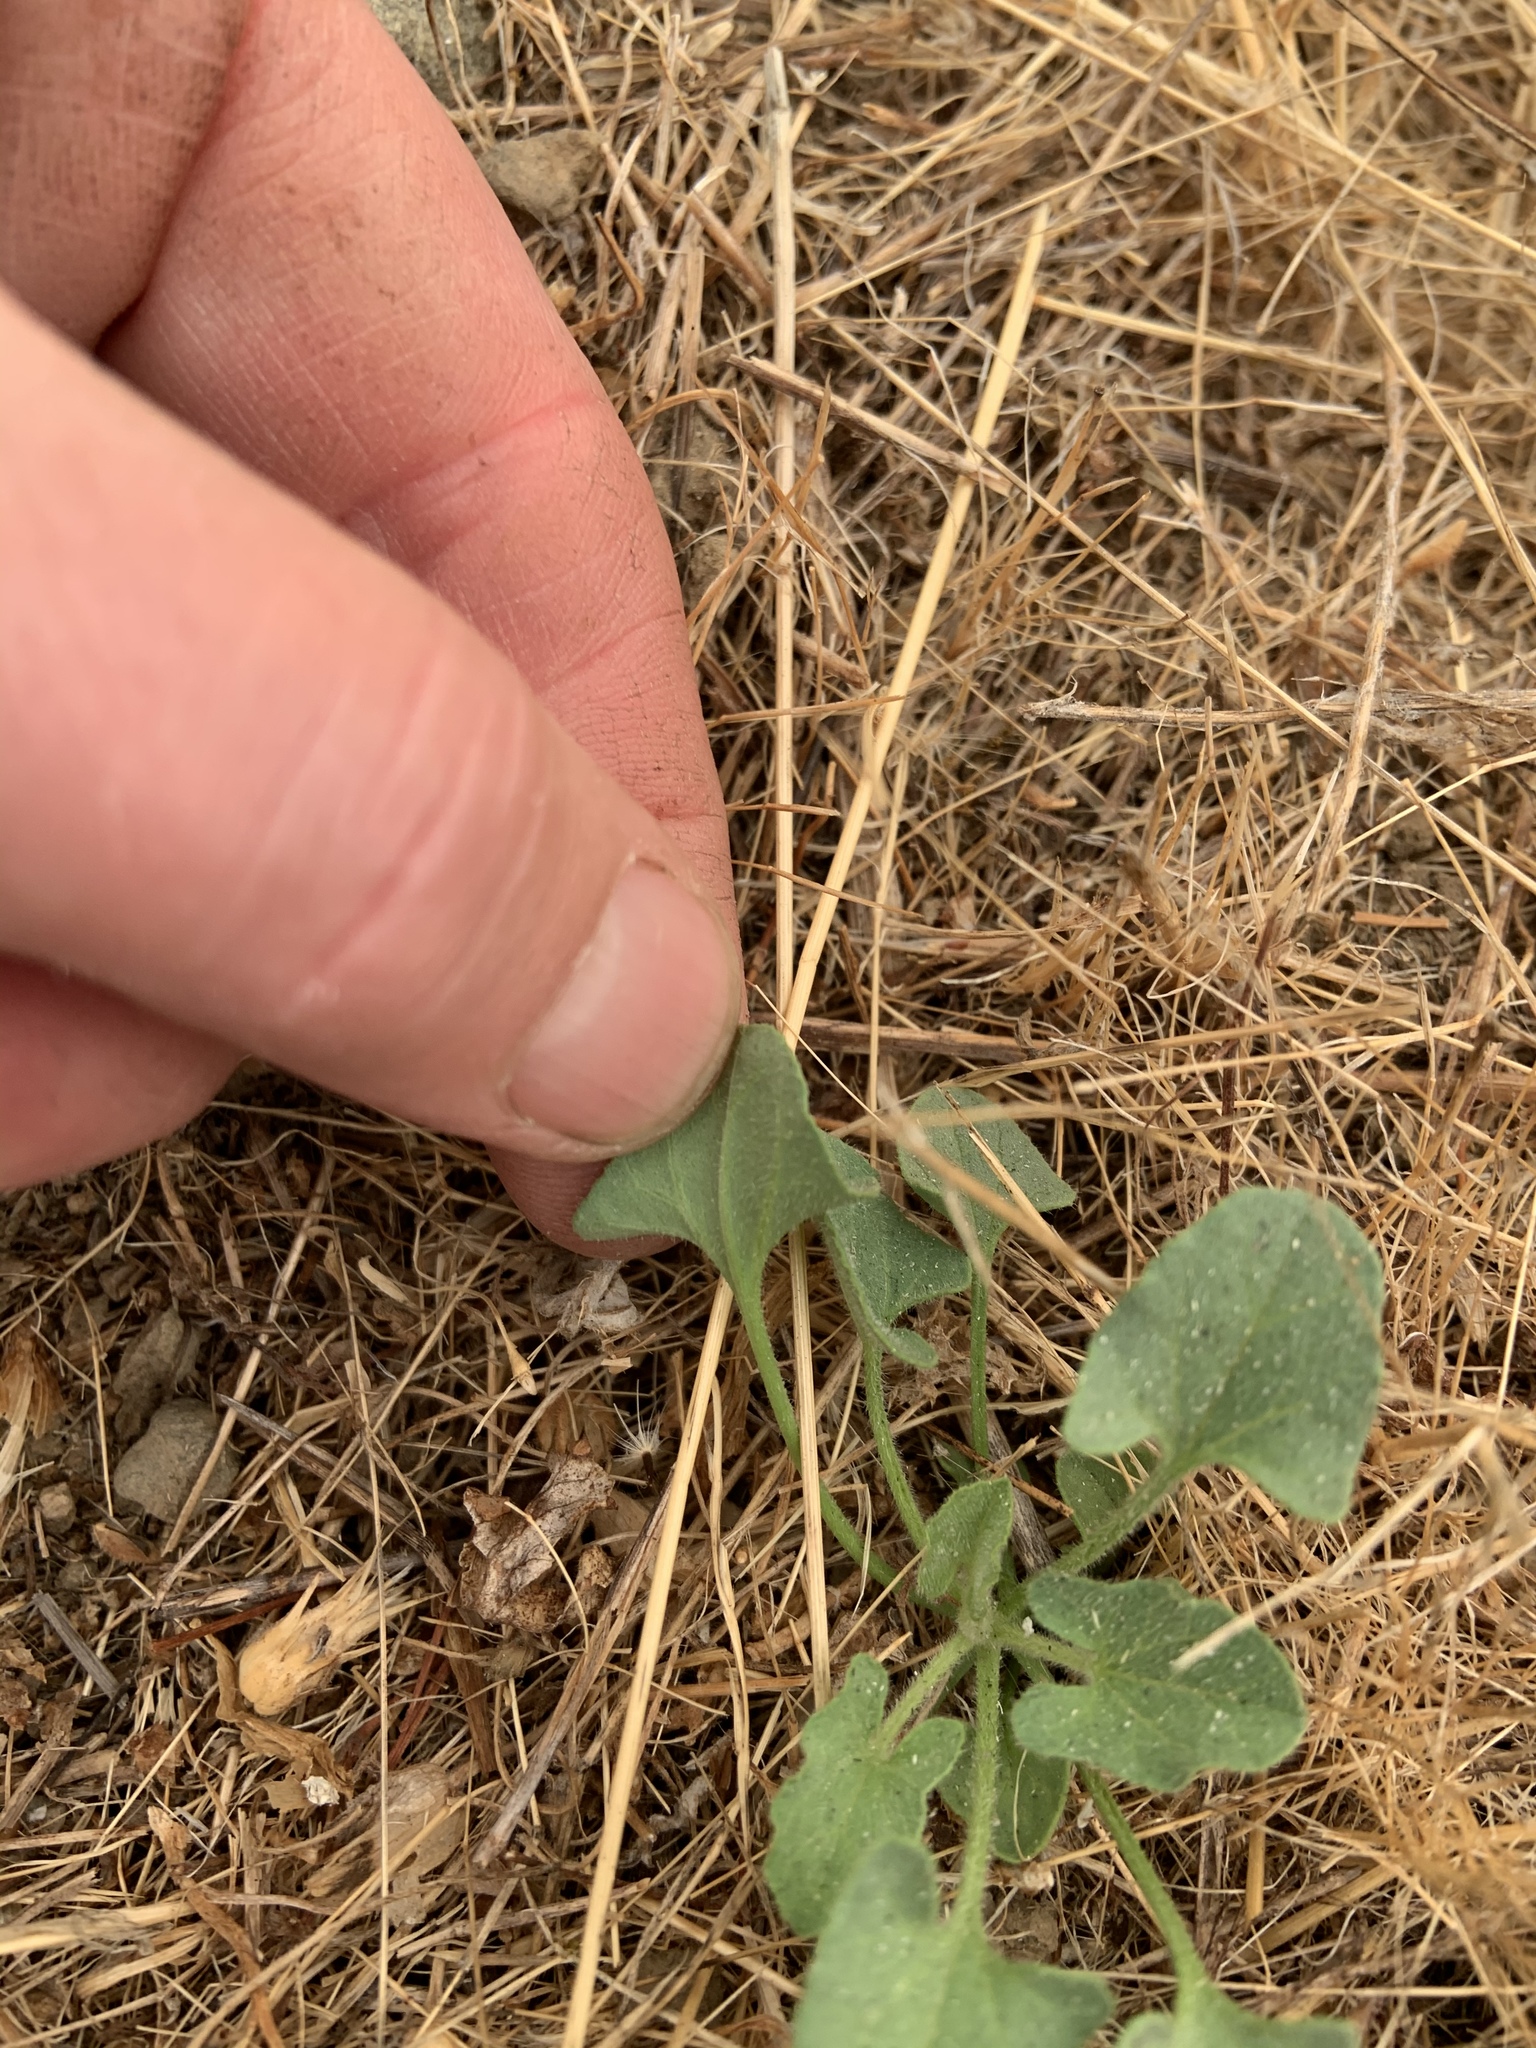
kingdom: Plantae
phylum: Tracheophyta
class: Magnoliopsida
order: Solanales
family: Convolvulaceae
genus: Calystegia
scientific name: Calystegia subacaulis
